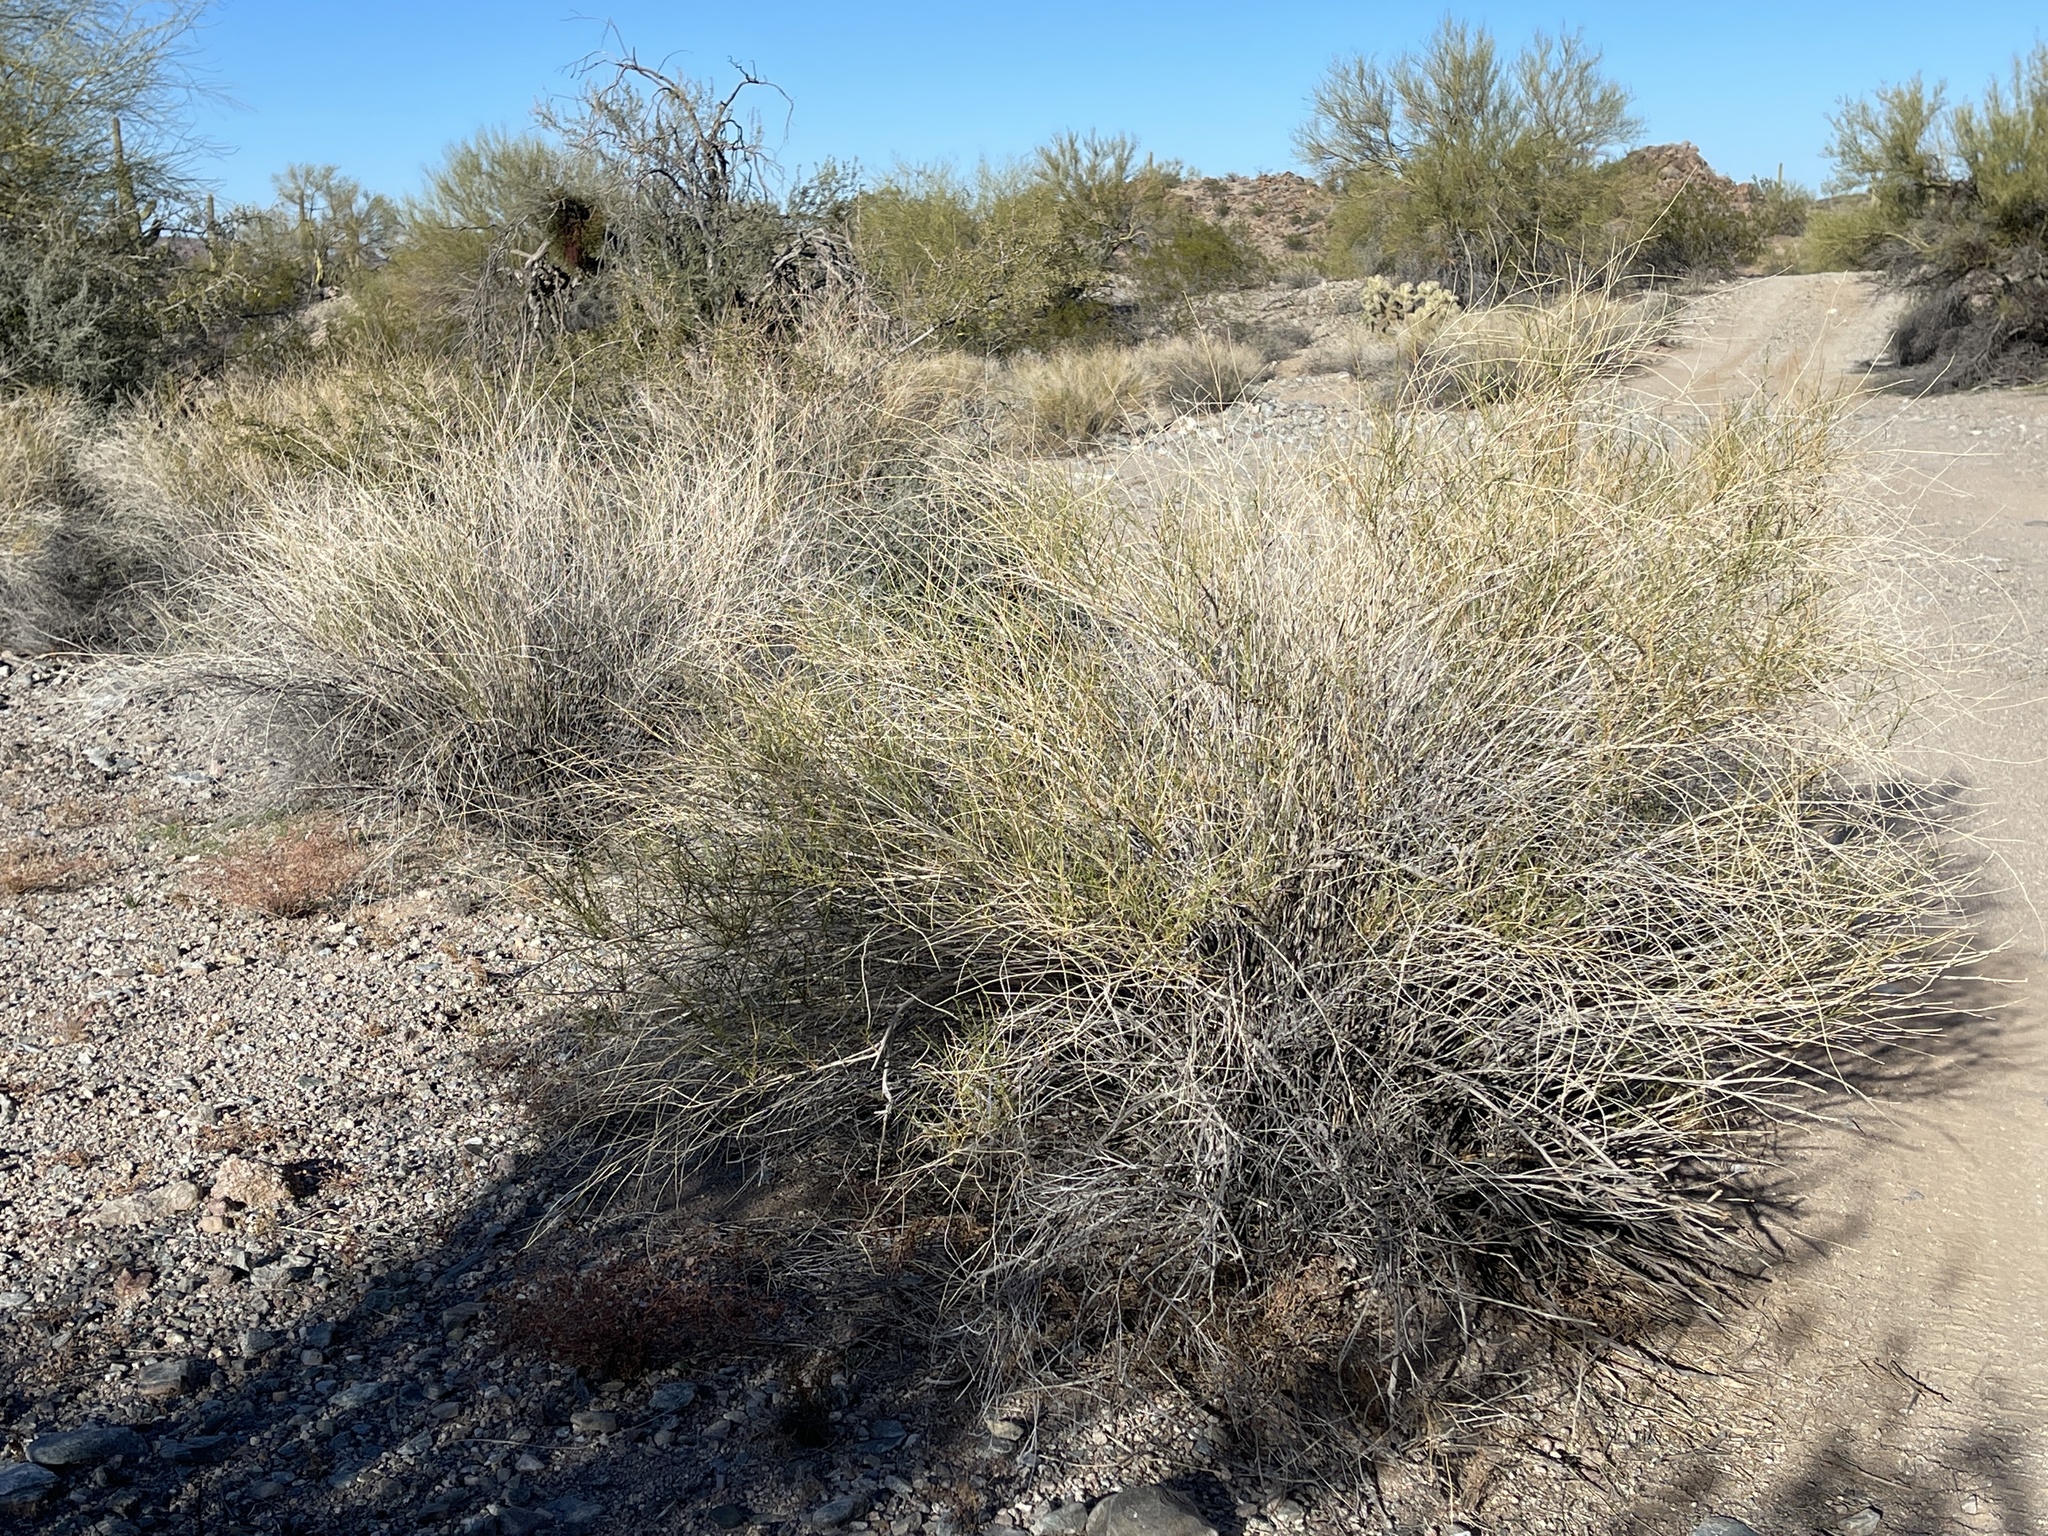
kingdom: Plantae
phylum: Tracheophyta
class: Magnoliopsida
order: Asterales
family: Asteraceae
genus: Ambrosia
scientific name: Ambrosia salsola
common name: Burrobrush
